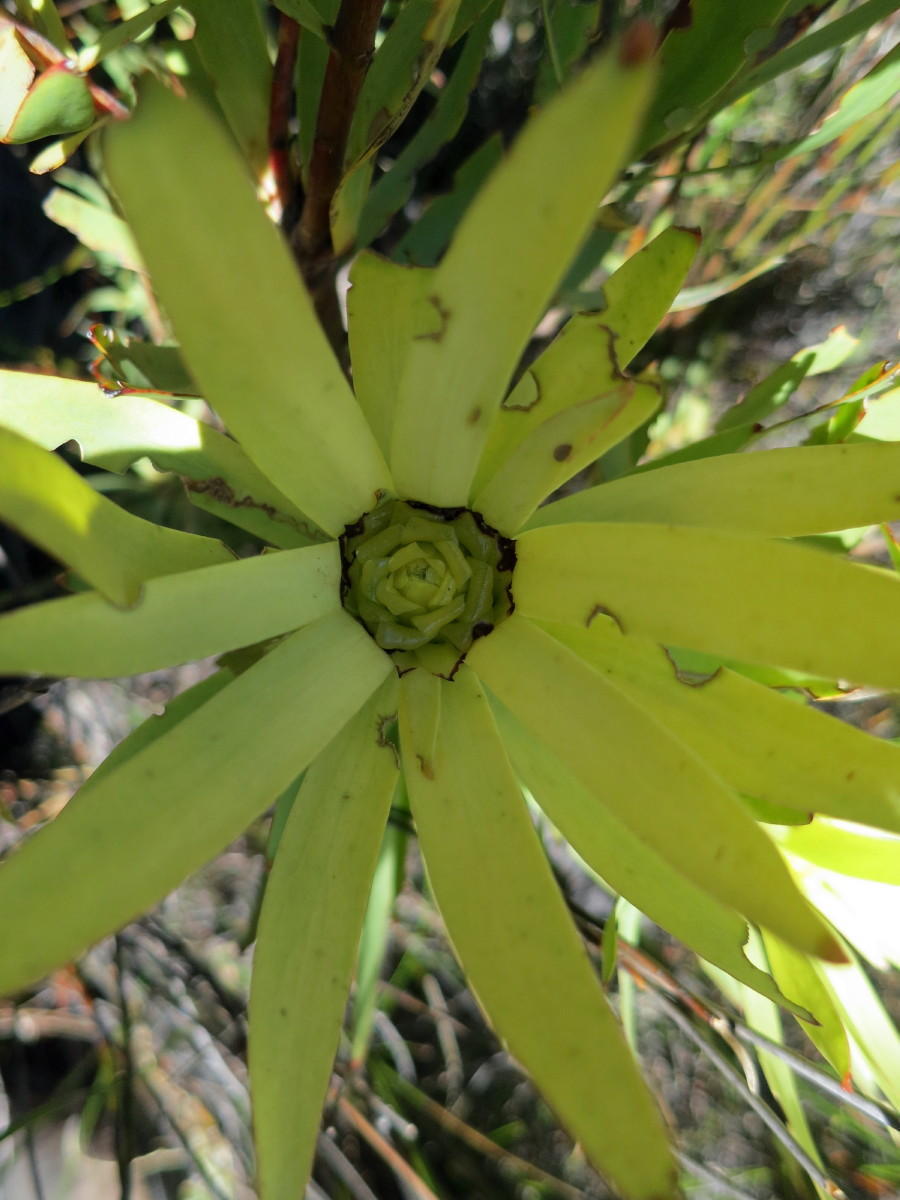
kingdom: Plantae
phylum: Tracheophyta
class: Magnoliopsida
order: Proteales
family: Proteaceae
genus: Leucadendron
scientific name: Leucadendron barkerae
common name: Swartberg conebush
